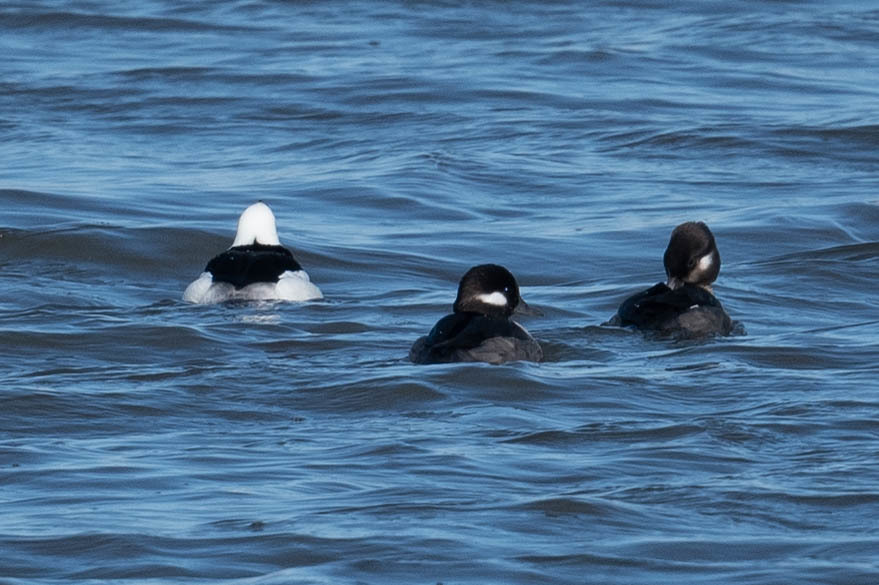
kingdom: Animalia
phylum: Chordata
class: Aves
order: Anseriformes
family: Anatidae
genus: Bucephala
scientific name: Bucephala albeola
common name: Bufflehead
